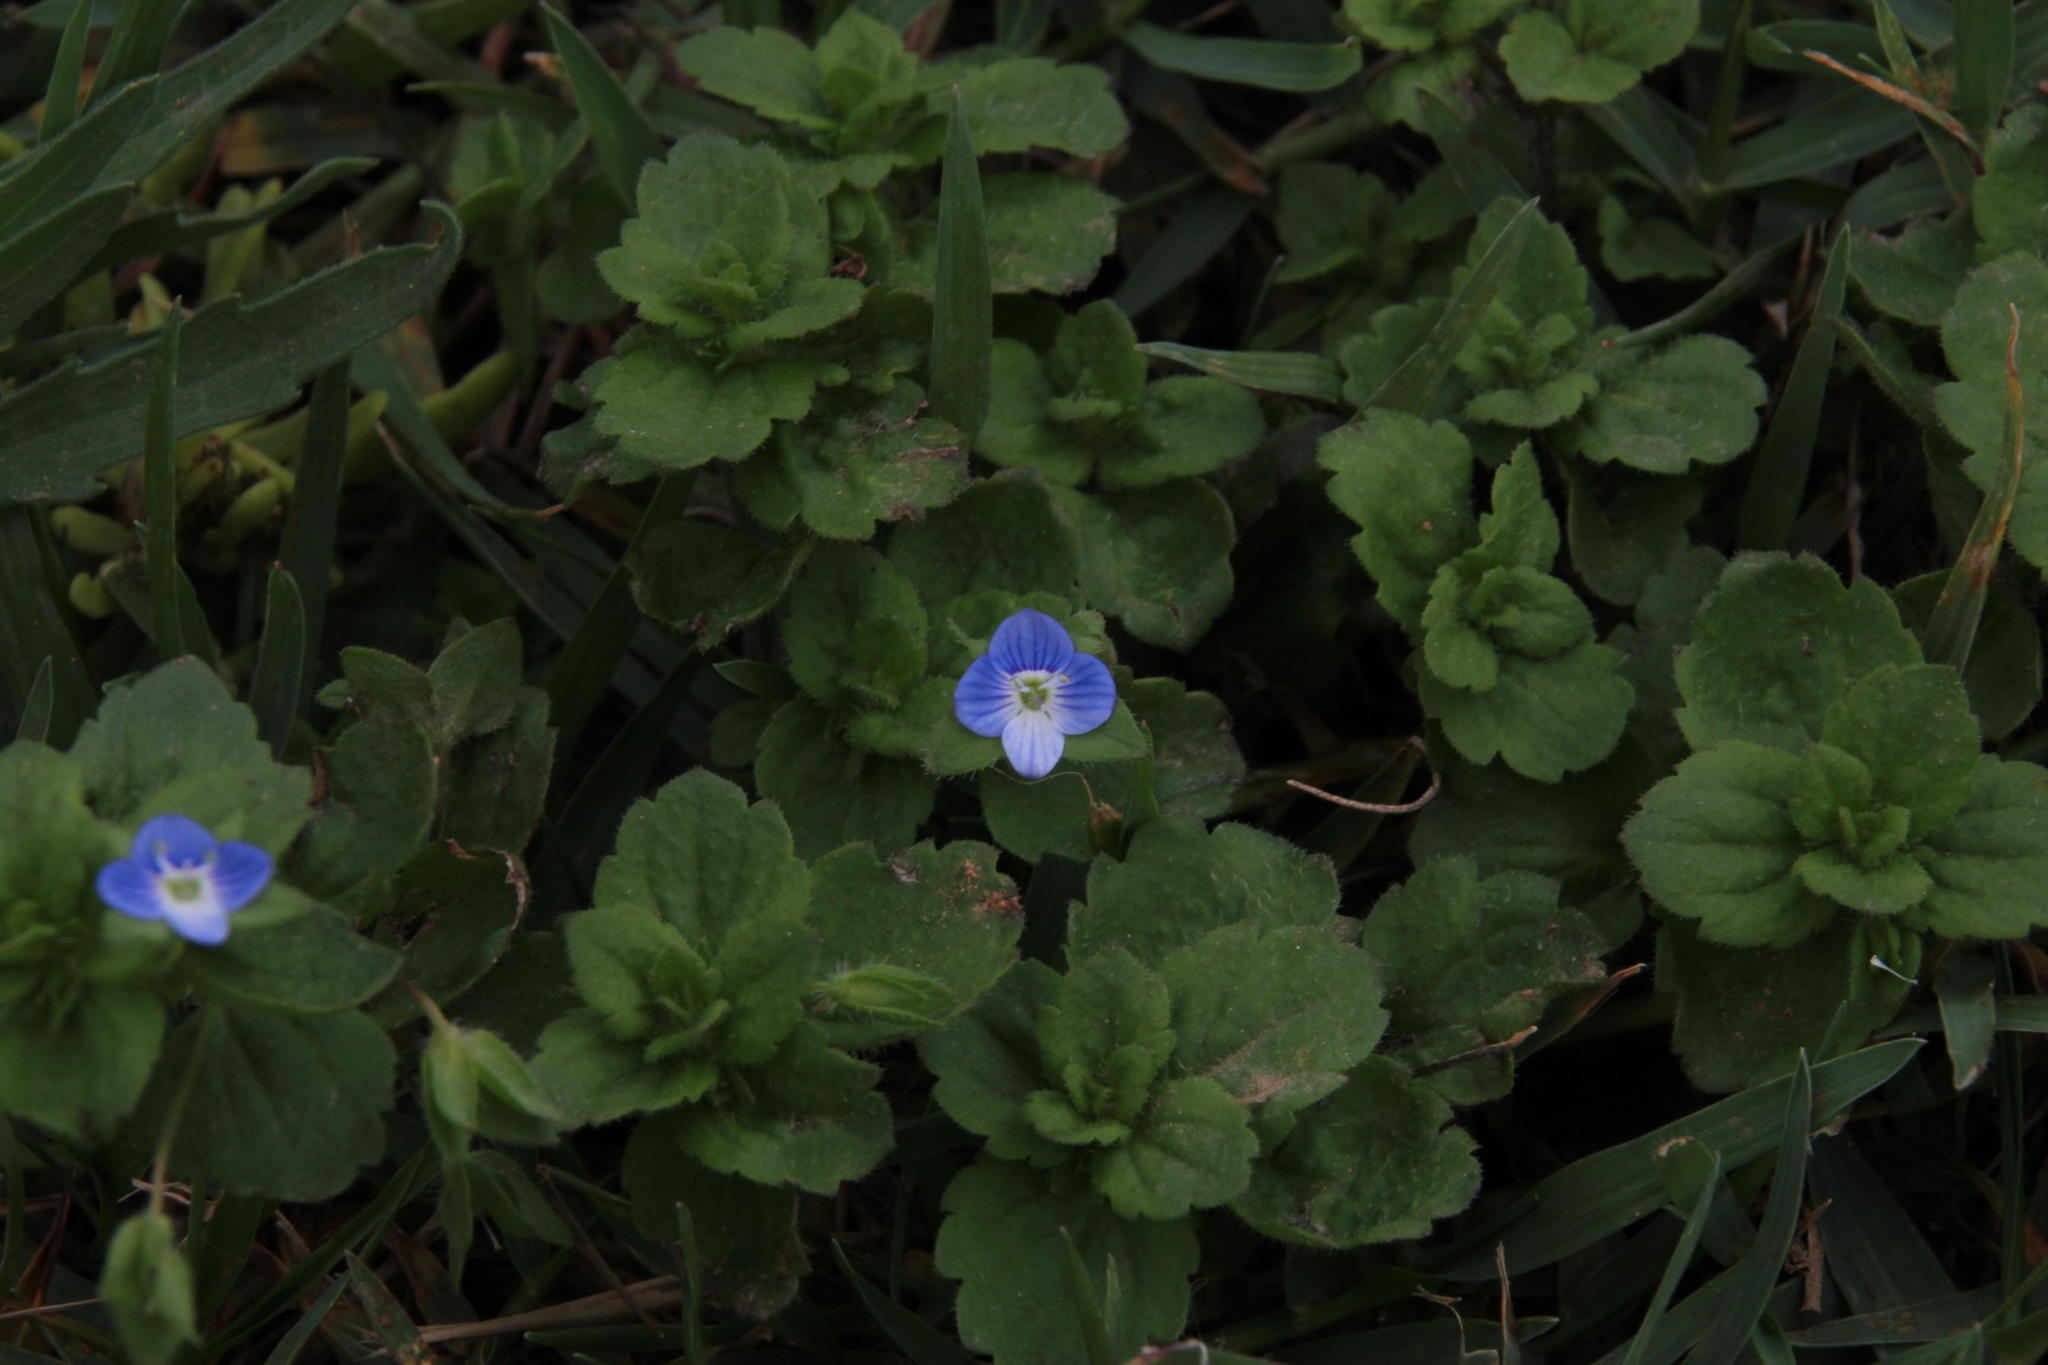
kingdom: Plantae
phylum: Tracheophyta
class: Magnoliopsida
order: Lamiales
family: Plantaginaceae
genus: Veronica
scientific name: Veronica persica
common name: Common field-speedwell
